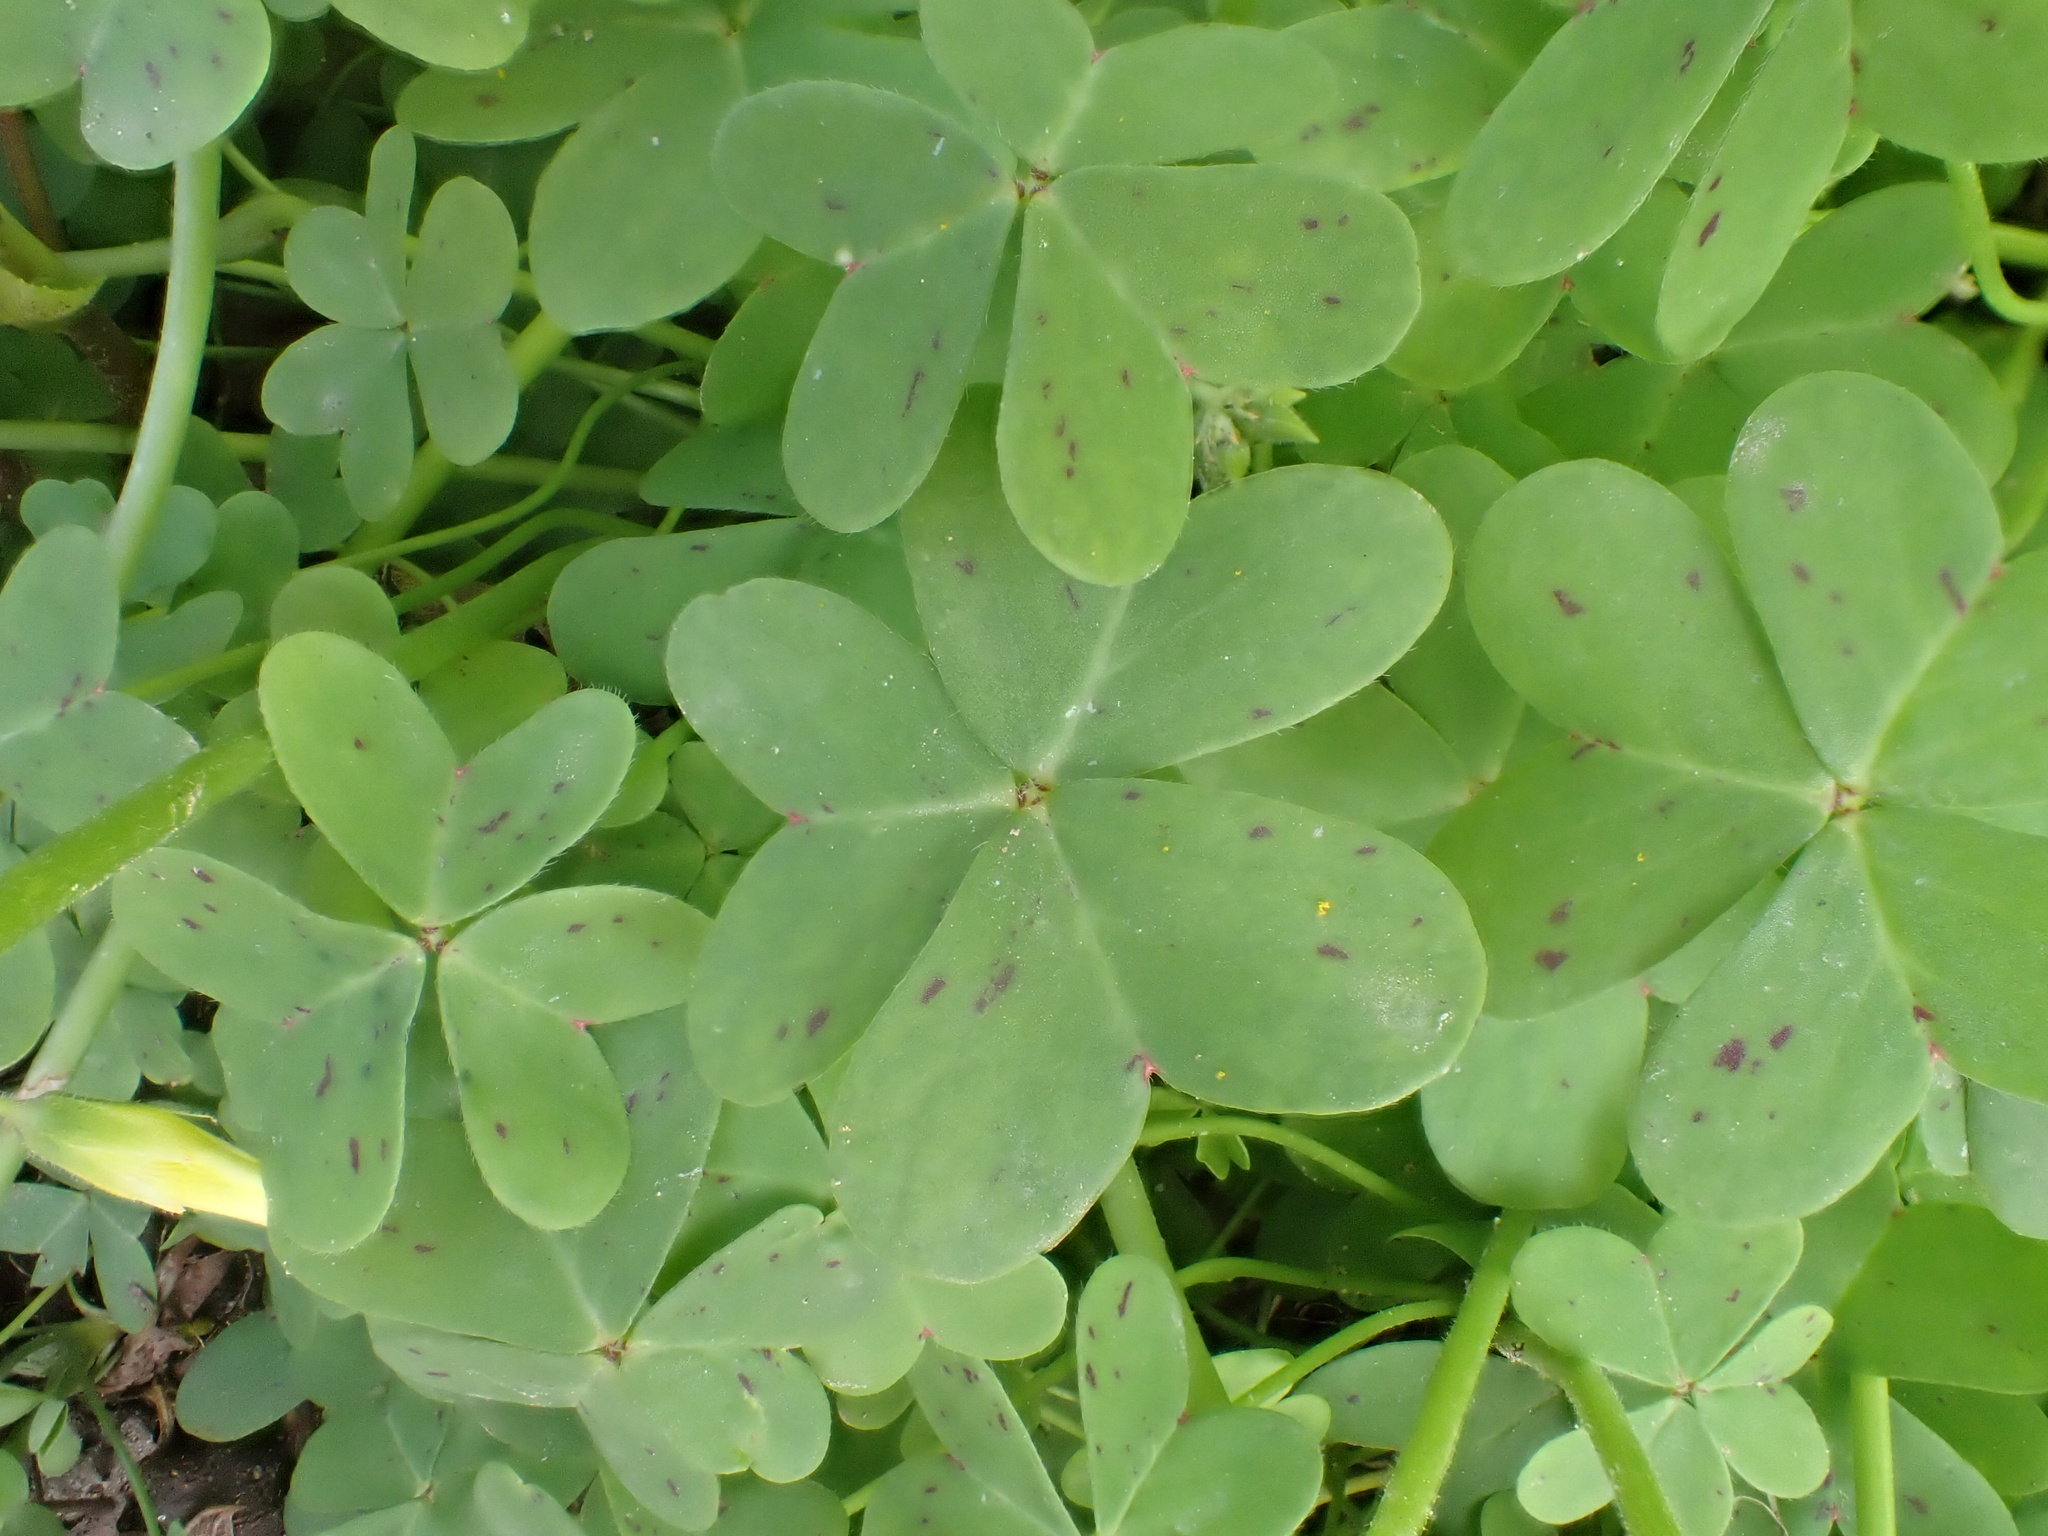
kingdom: Plantae
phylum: Tracheophyta
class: Magnoliopsida
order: Oxalidales
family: Oxalidaceae
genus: Oxalis
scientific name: Oxalis pes-caprae
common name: Bermuda-buttercup
